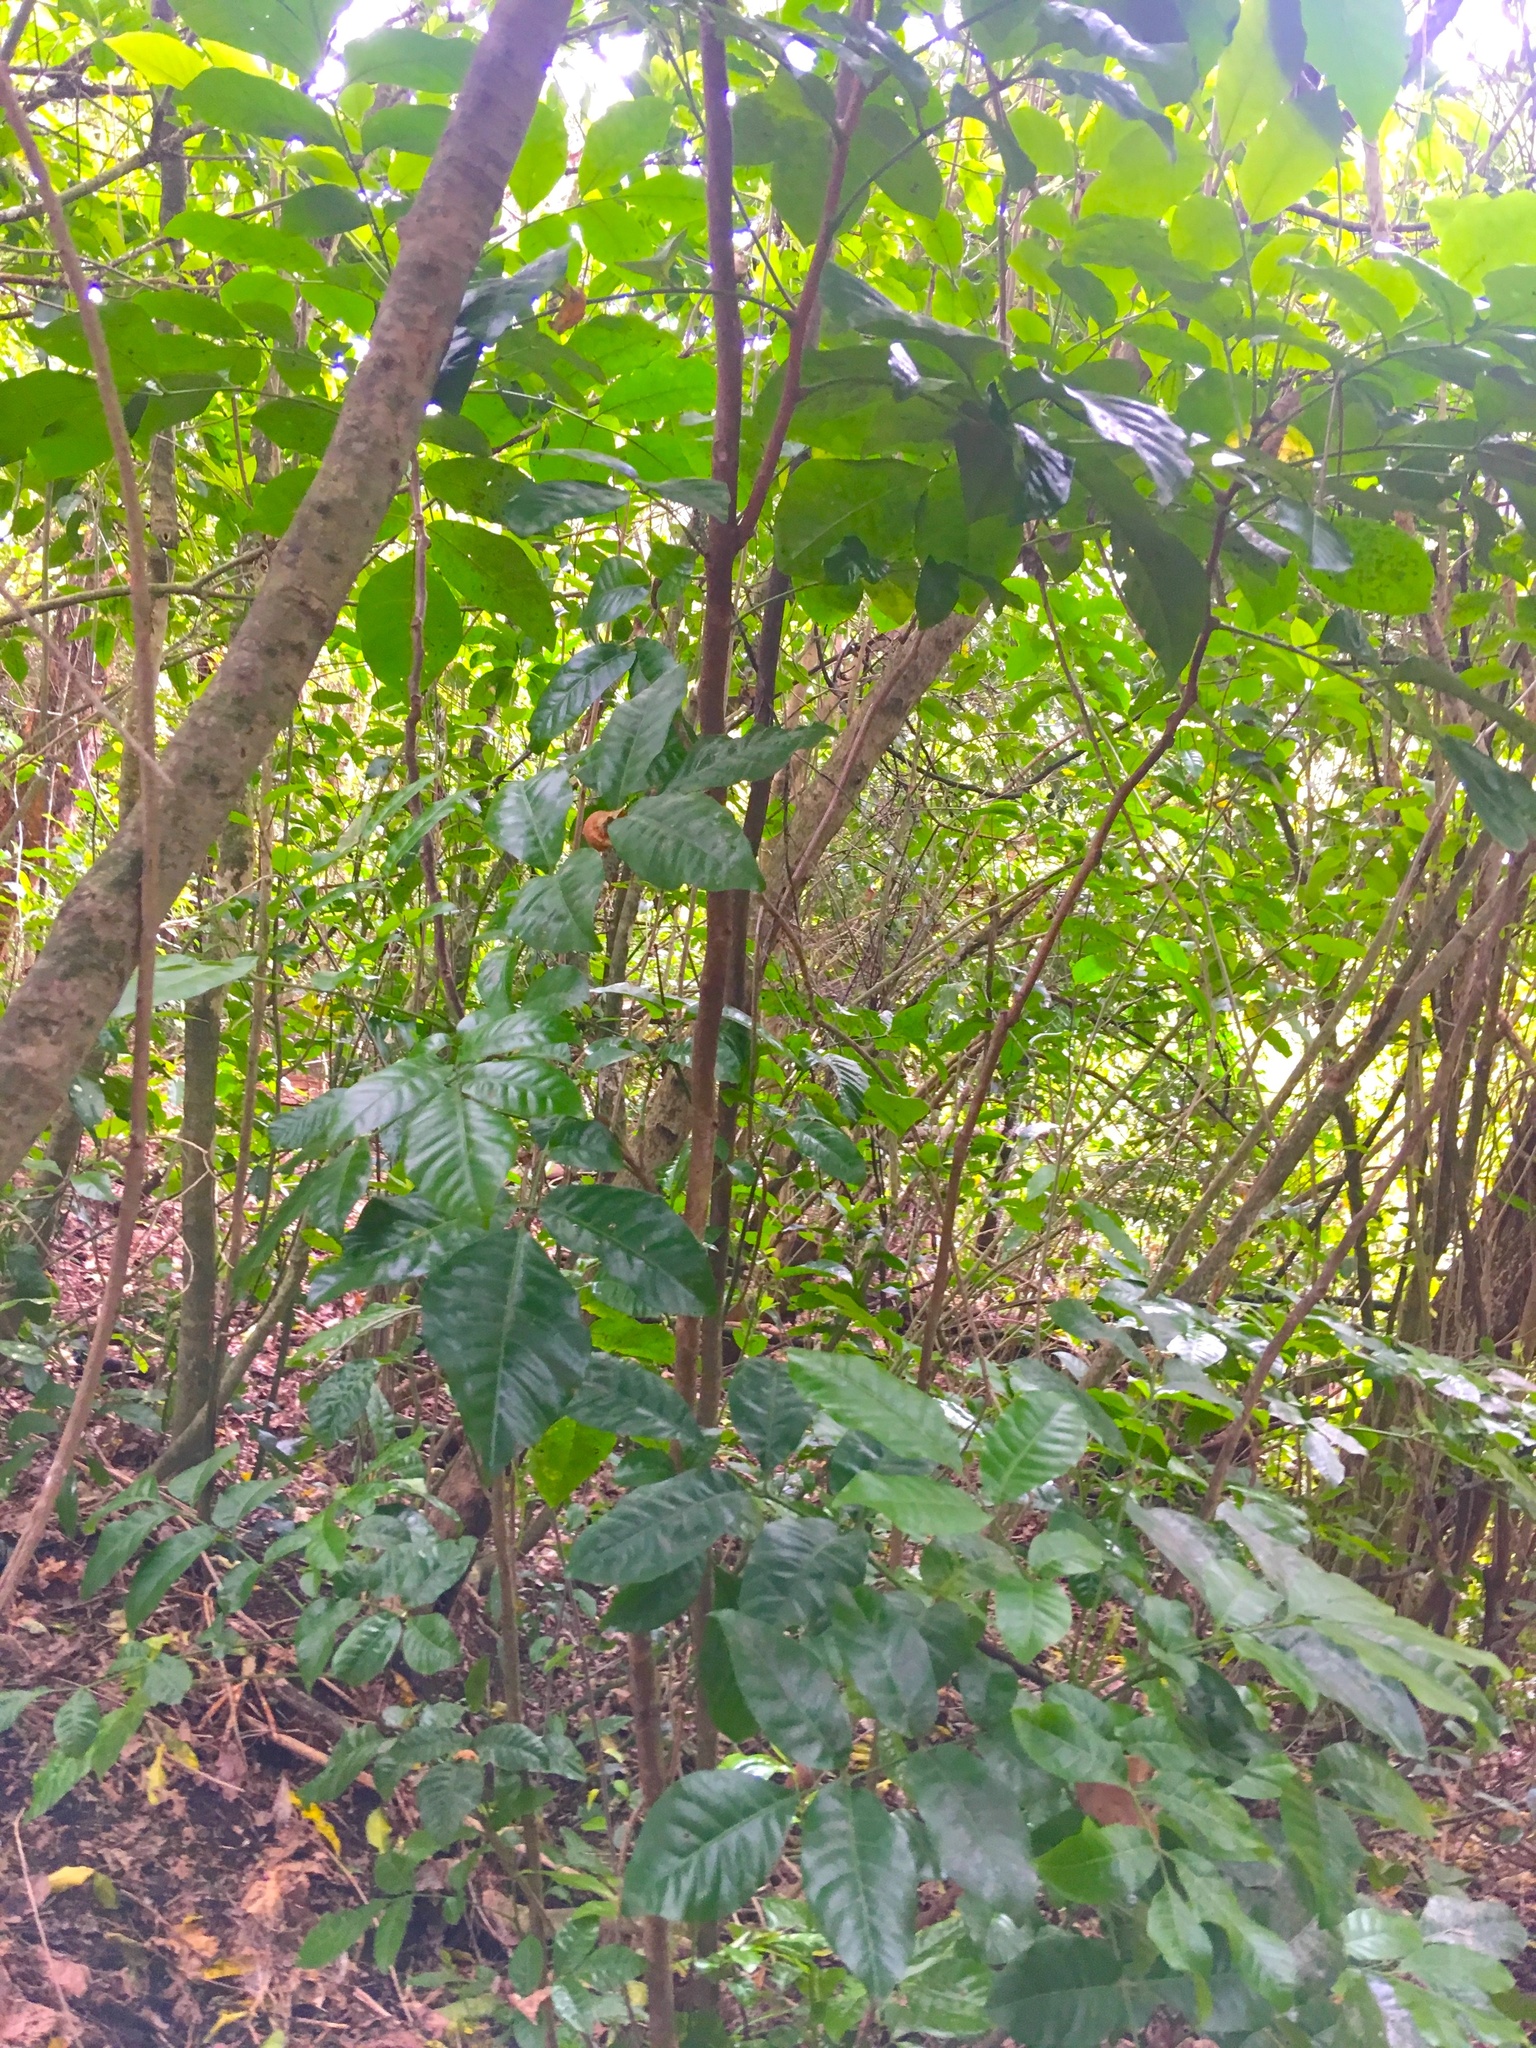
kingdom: Plantae
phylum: Tracheophyta
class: Magnoliopsida
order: Lamiales
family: Lamiaceae
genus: Vitex
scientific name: Vitex lucens
